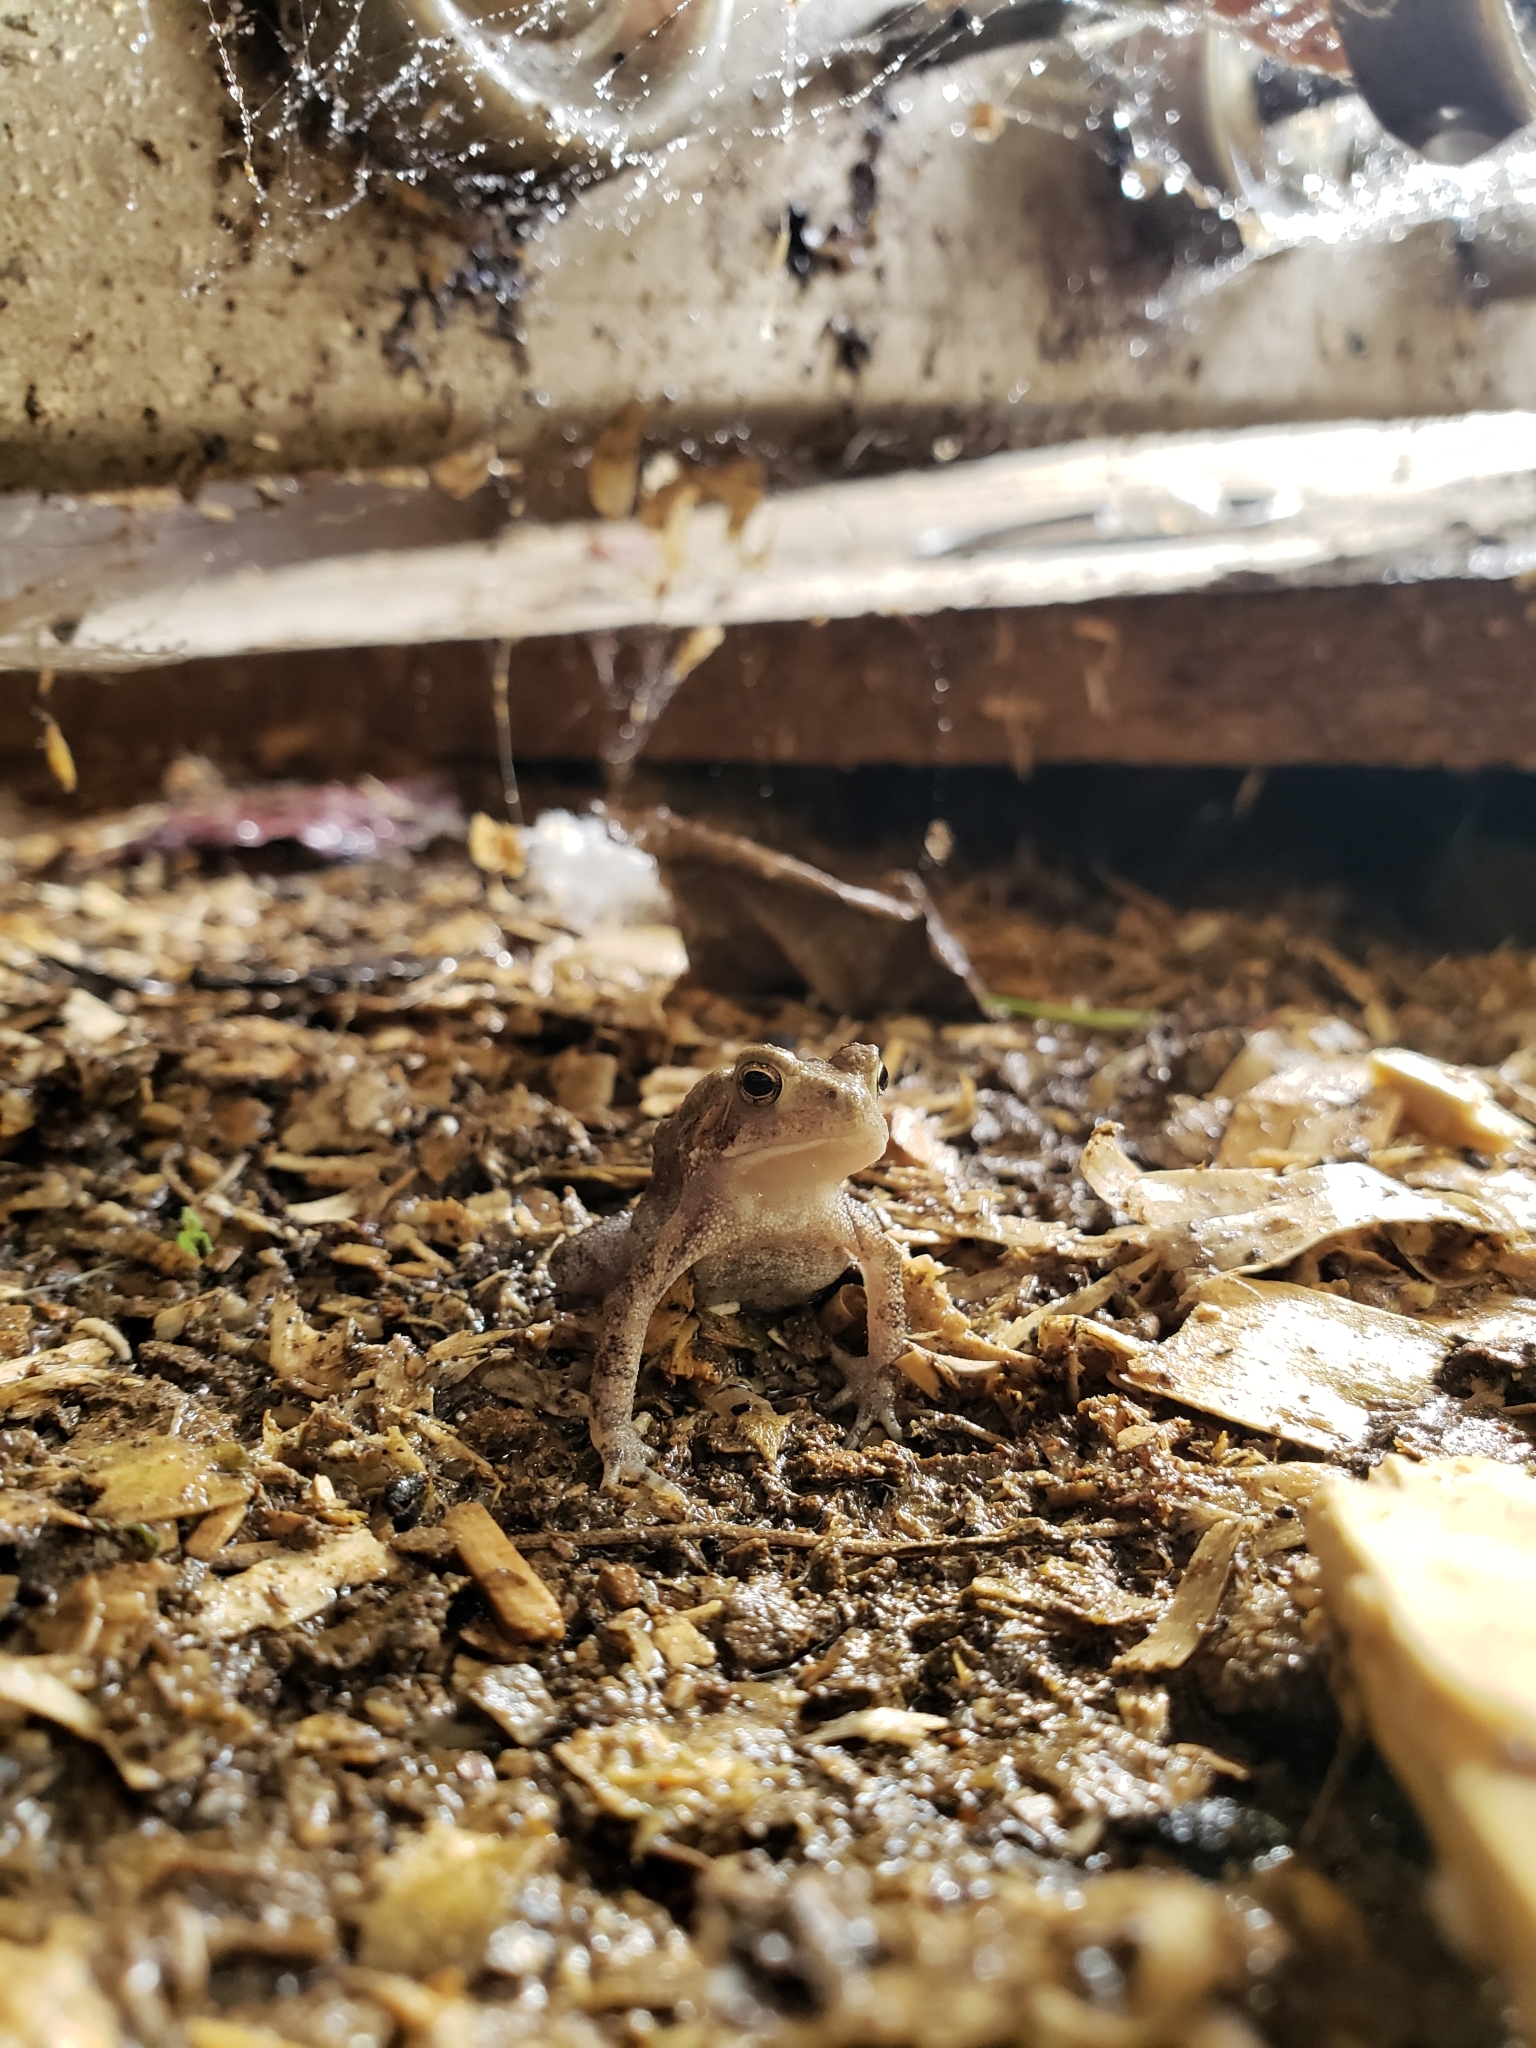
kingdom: Animalia
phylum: Chordata
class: Amphibia
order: Anura
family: Bufonidae
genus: Anaxyrus
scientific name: Anaxyrus americanus
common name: American toad
